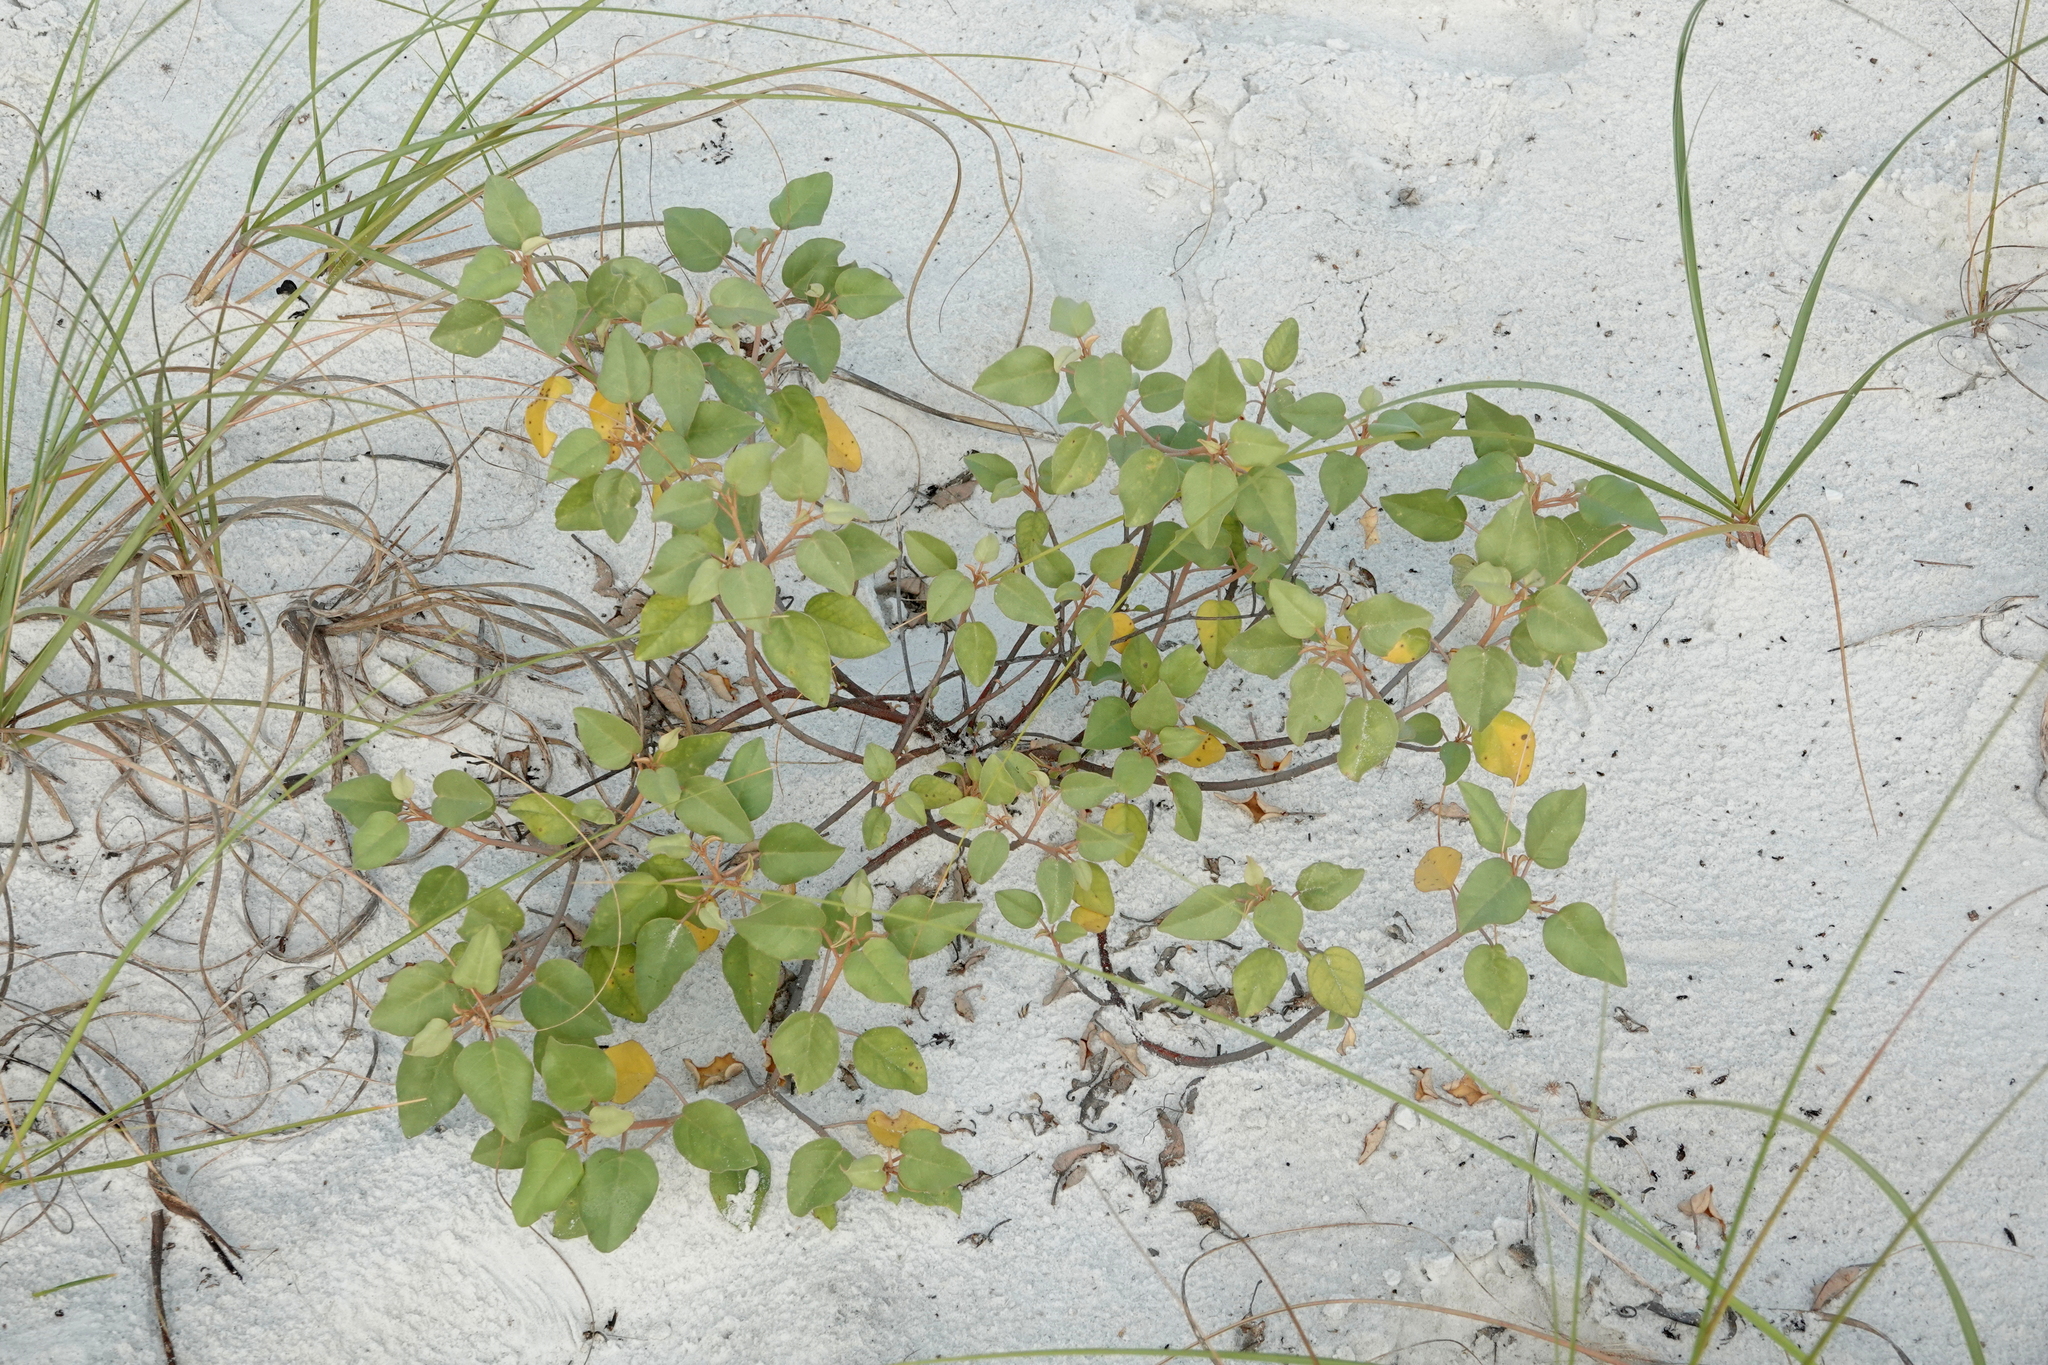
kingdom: Plantae
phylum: Tracheophyta
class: Magnoliopsida
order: Malpighiales
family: Euphorbiaceae
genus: Croton
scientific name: Croton punctatus
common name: Beach-tea
